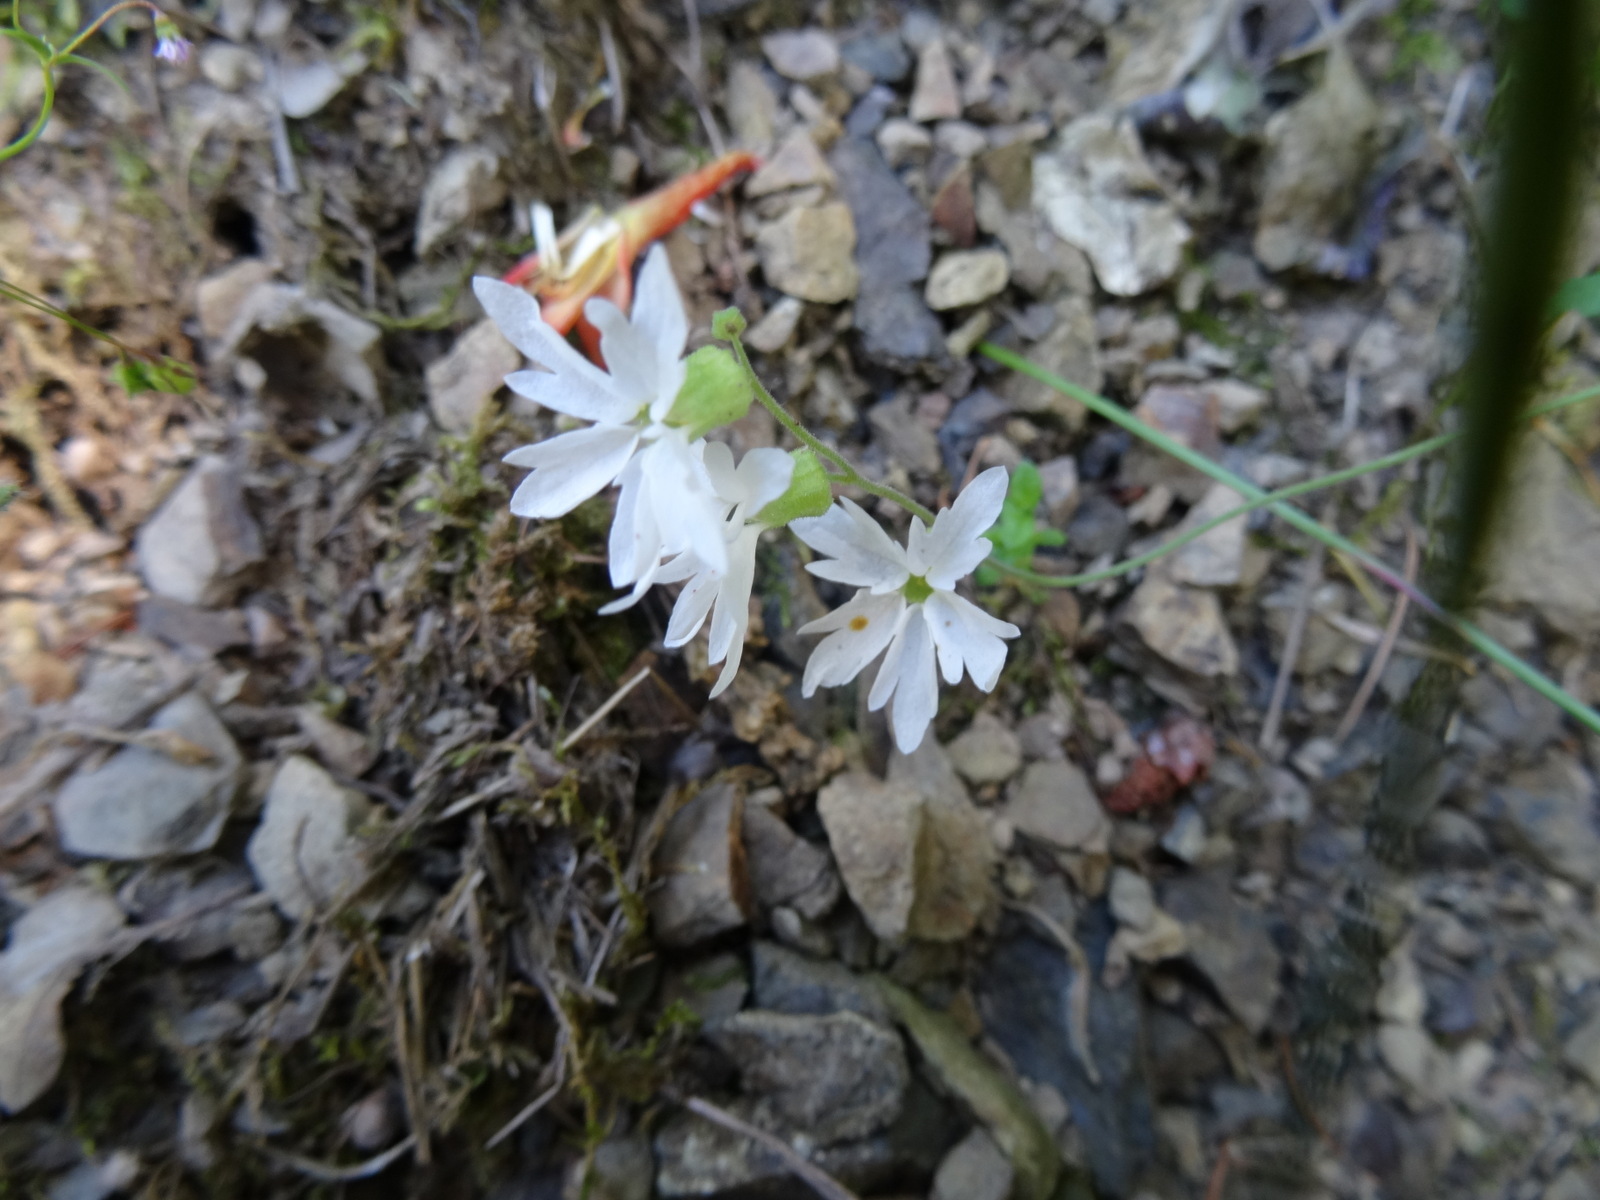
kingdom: Plantae
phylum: Tracheophyta
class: Magnoliopsida
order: Saxifragales
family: Saxifragaceae
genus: Lithophragma
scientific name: Lithophragma heterophyllum
